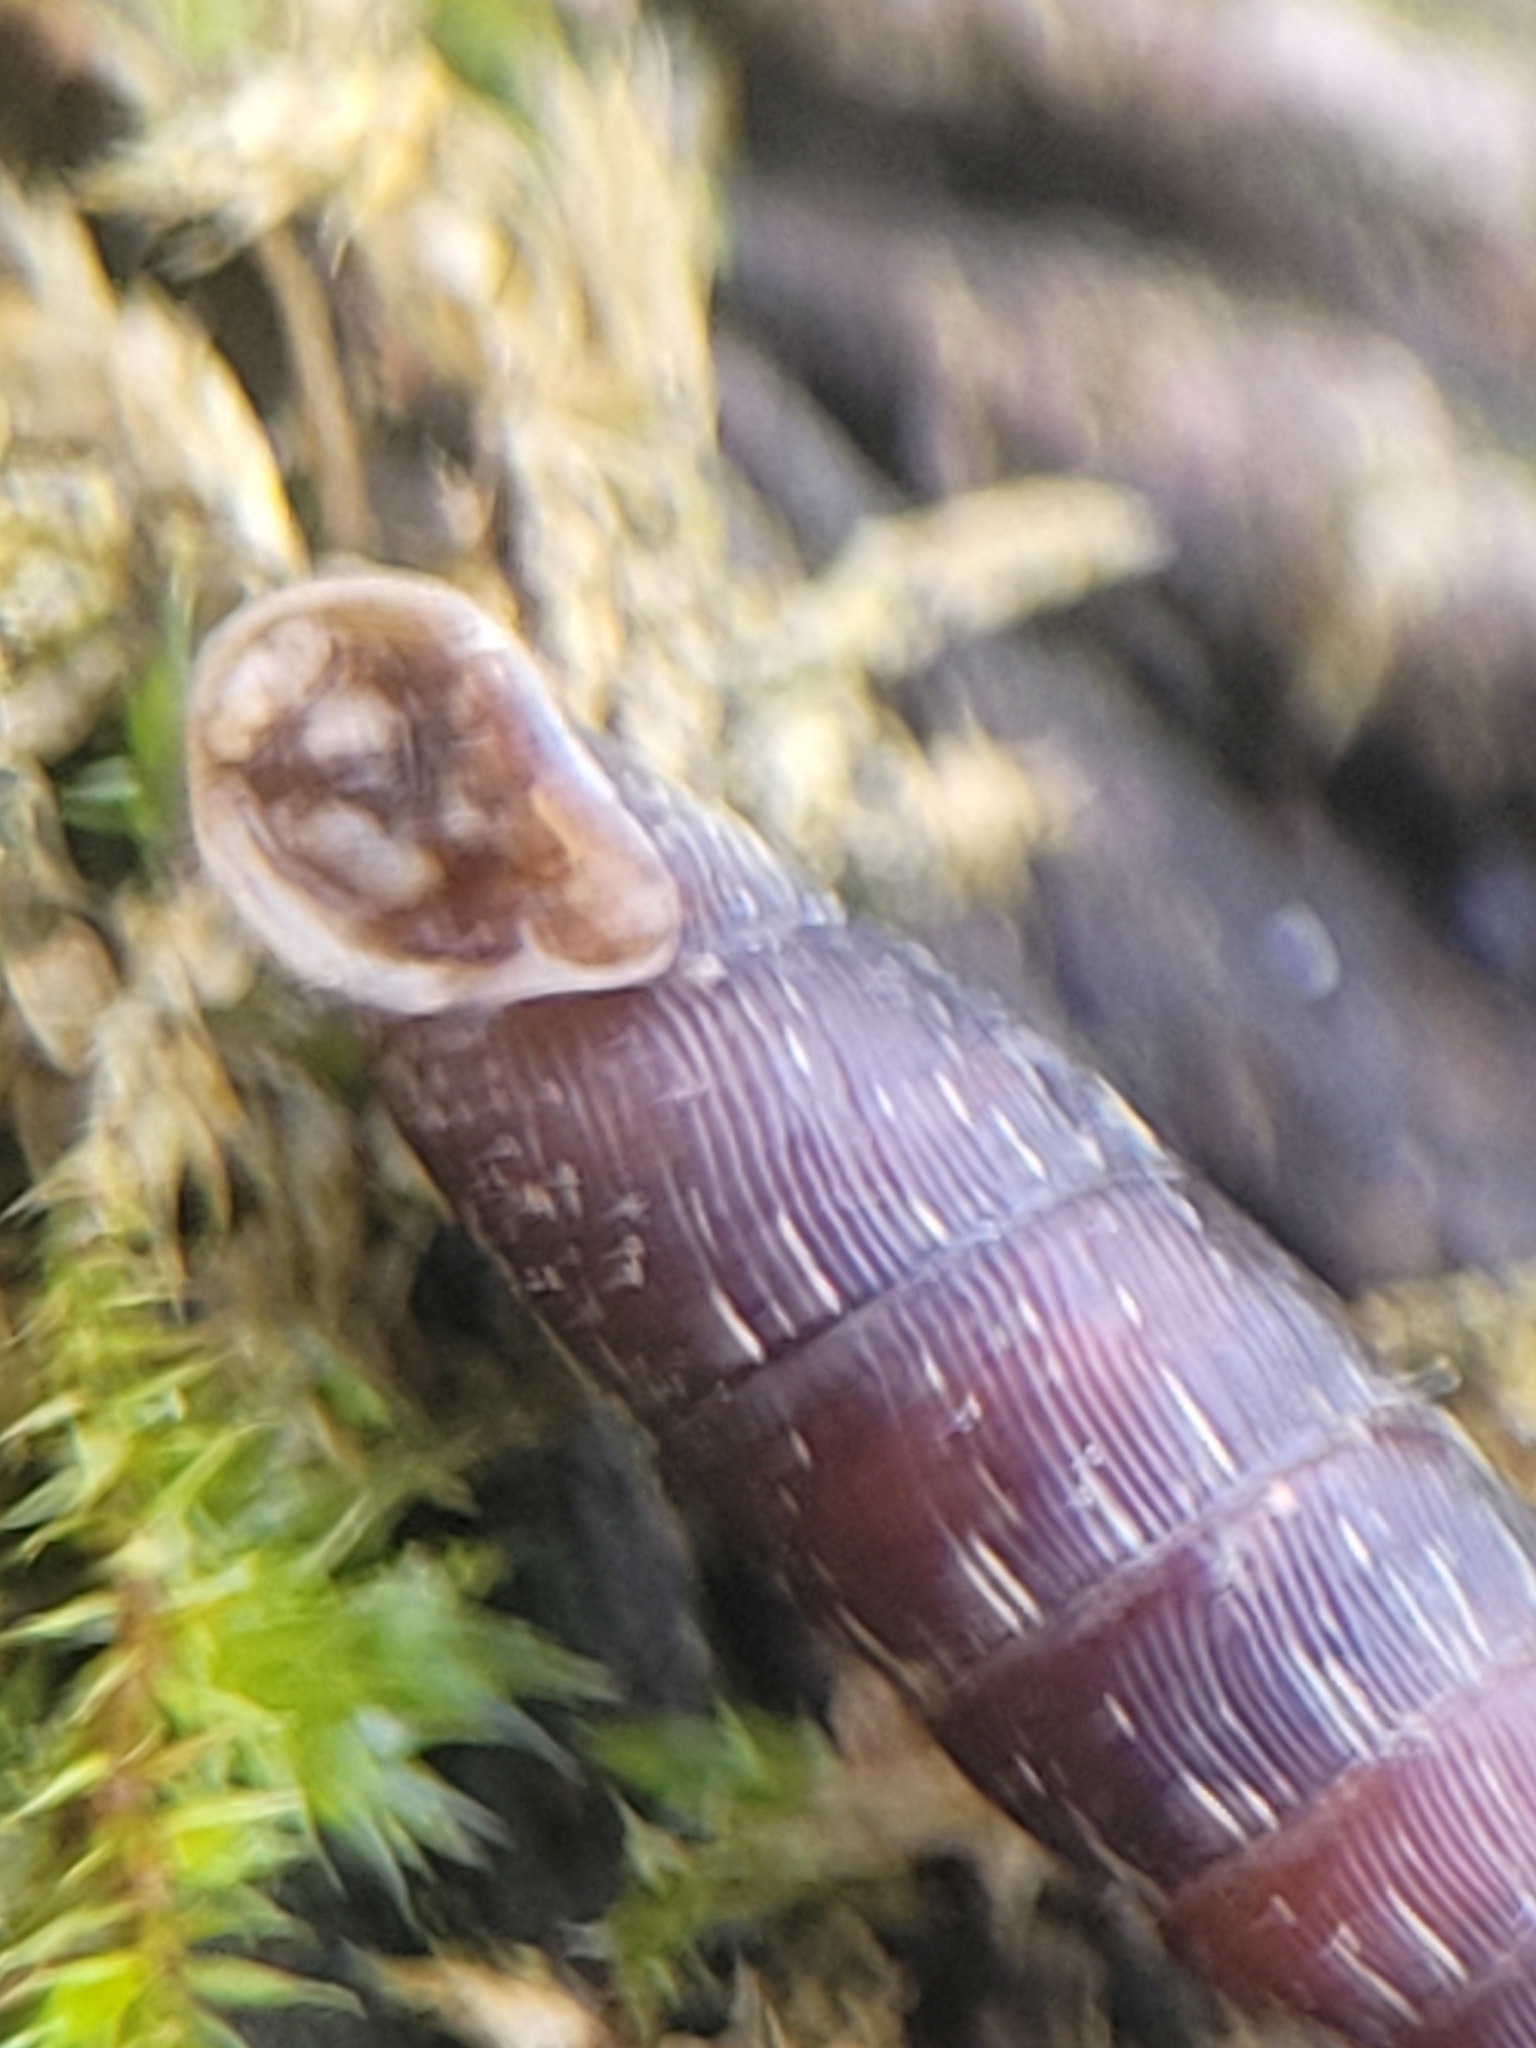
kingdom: Animalia
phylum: Mollusca
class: Gastropoda
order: Stylommatophora
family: Clausiliidae
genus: Clausilia
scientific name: Clausilia bidentata
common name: Two-toothed door snail
